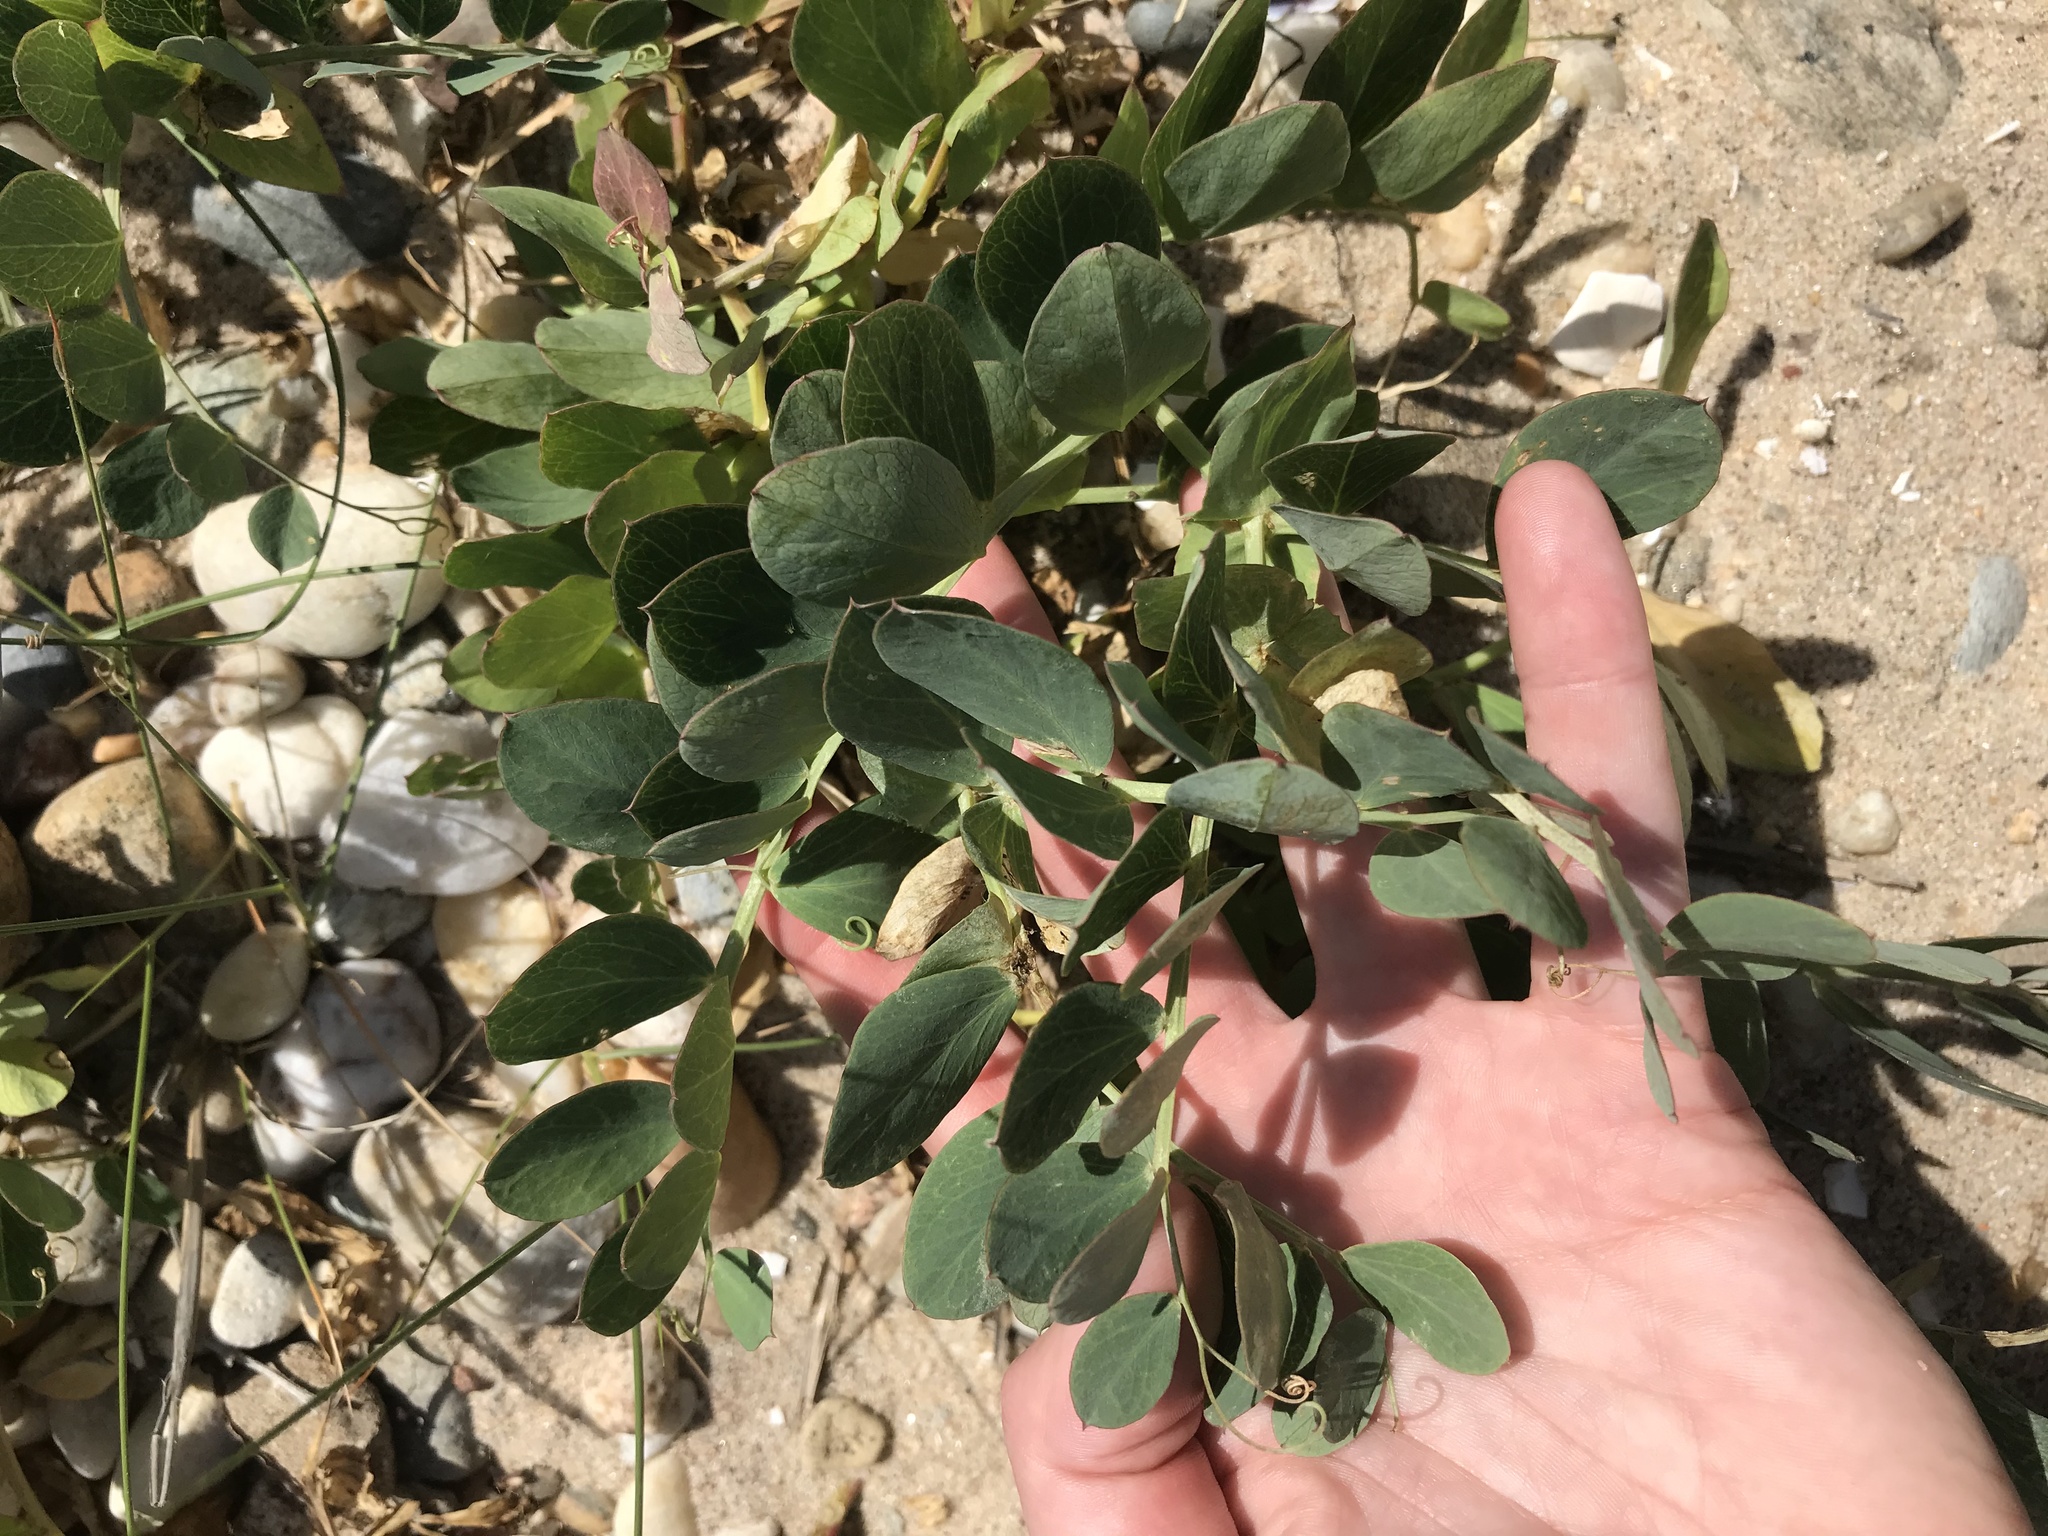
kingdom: Plantae
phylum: Tracheophyta
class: Magnoliopsida
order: Fabales
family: Fabaceae
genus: Lathyrus
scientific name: Lathyrus japonicus
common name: Sea pea
